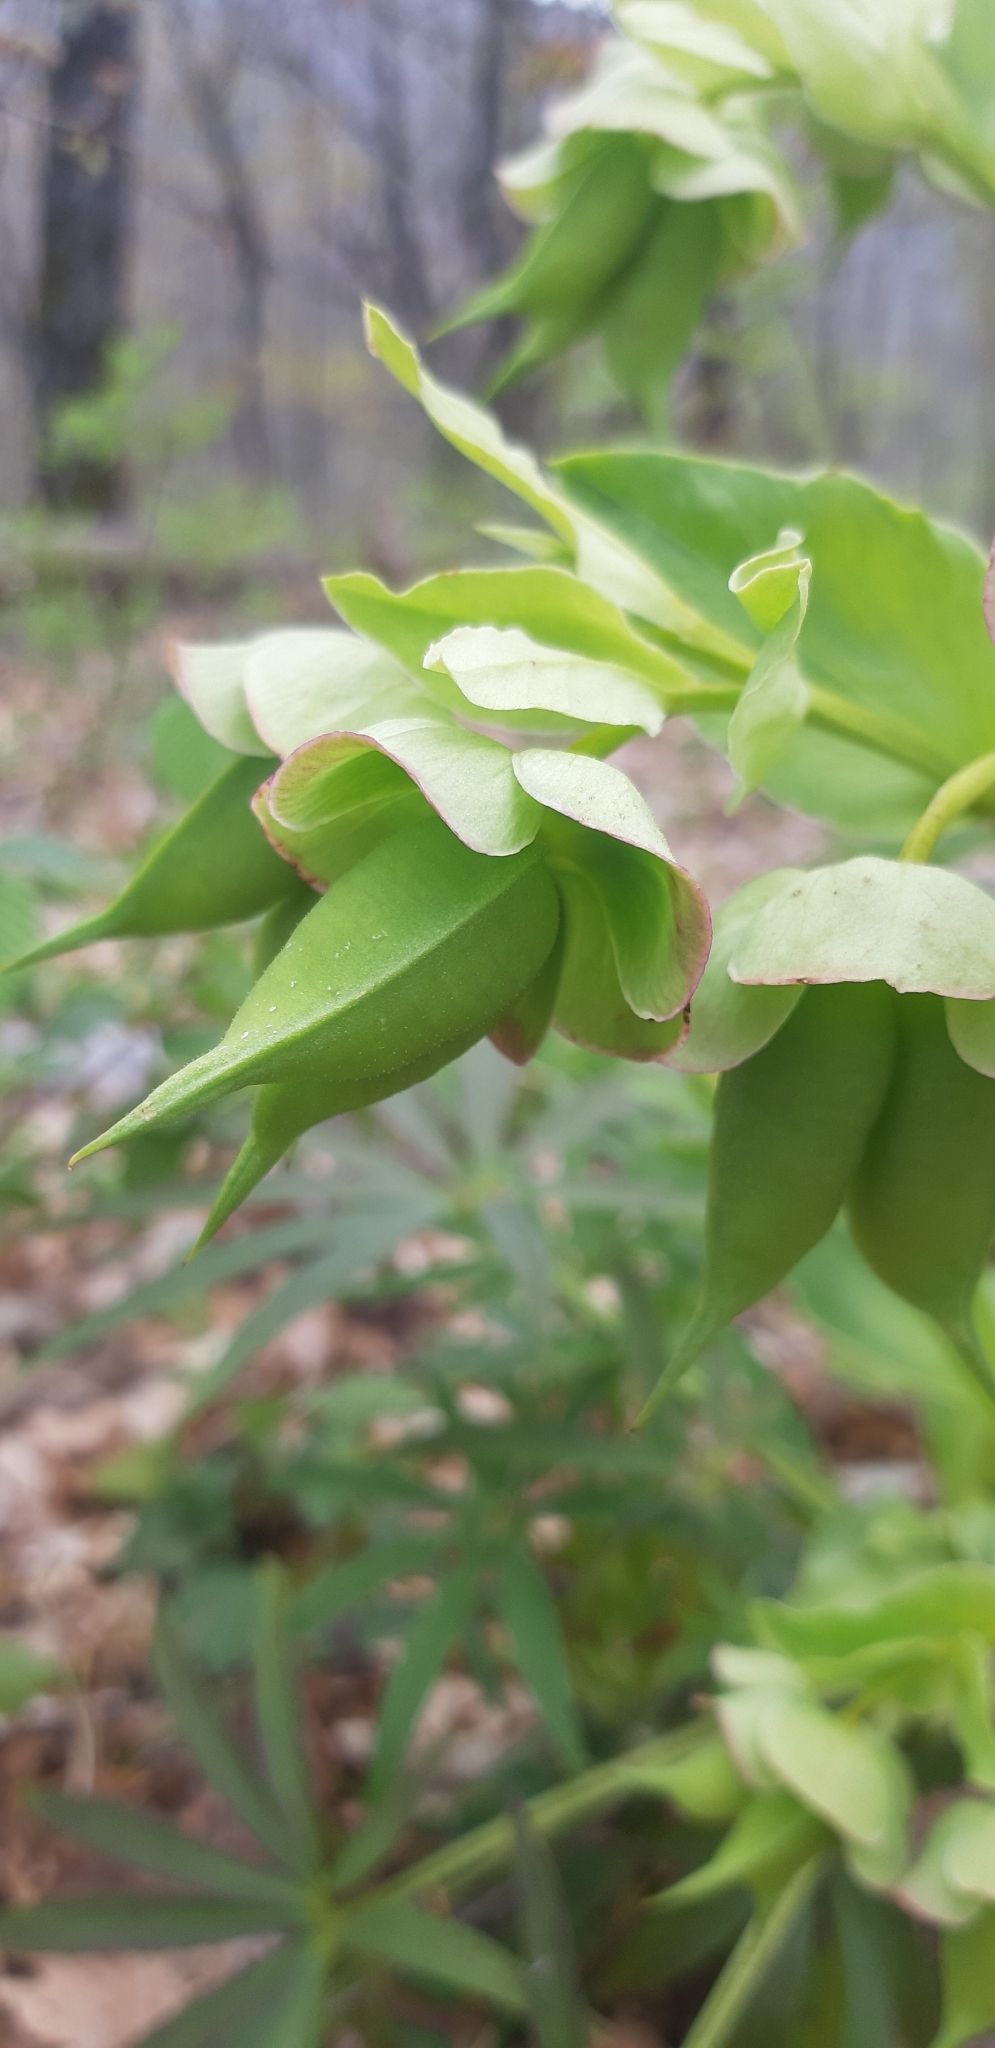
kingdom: Plantae
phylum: Tracheophyta
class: Magnoliopsida
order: Ranunculales
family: Ranunculaceae
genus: Helleborus
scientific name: Helleborus foetidus
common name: Stinking hellebore
